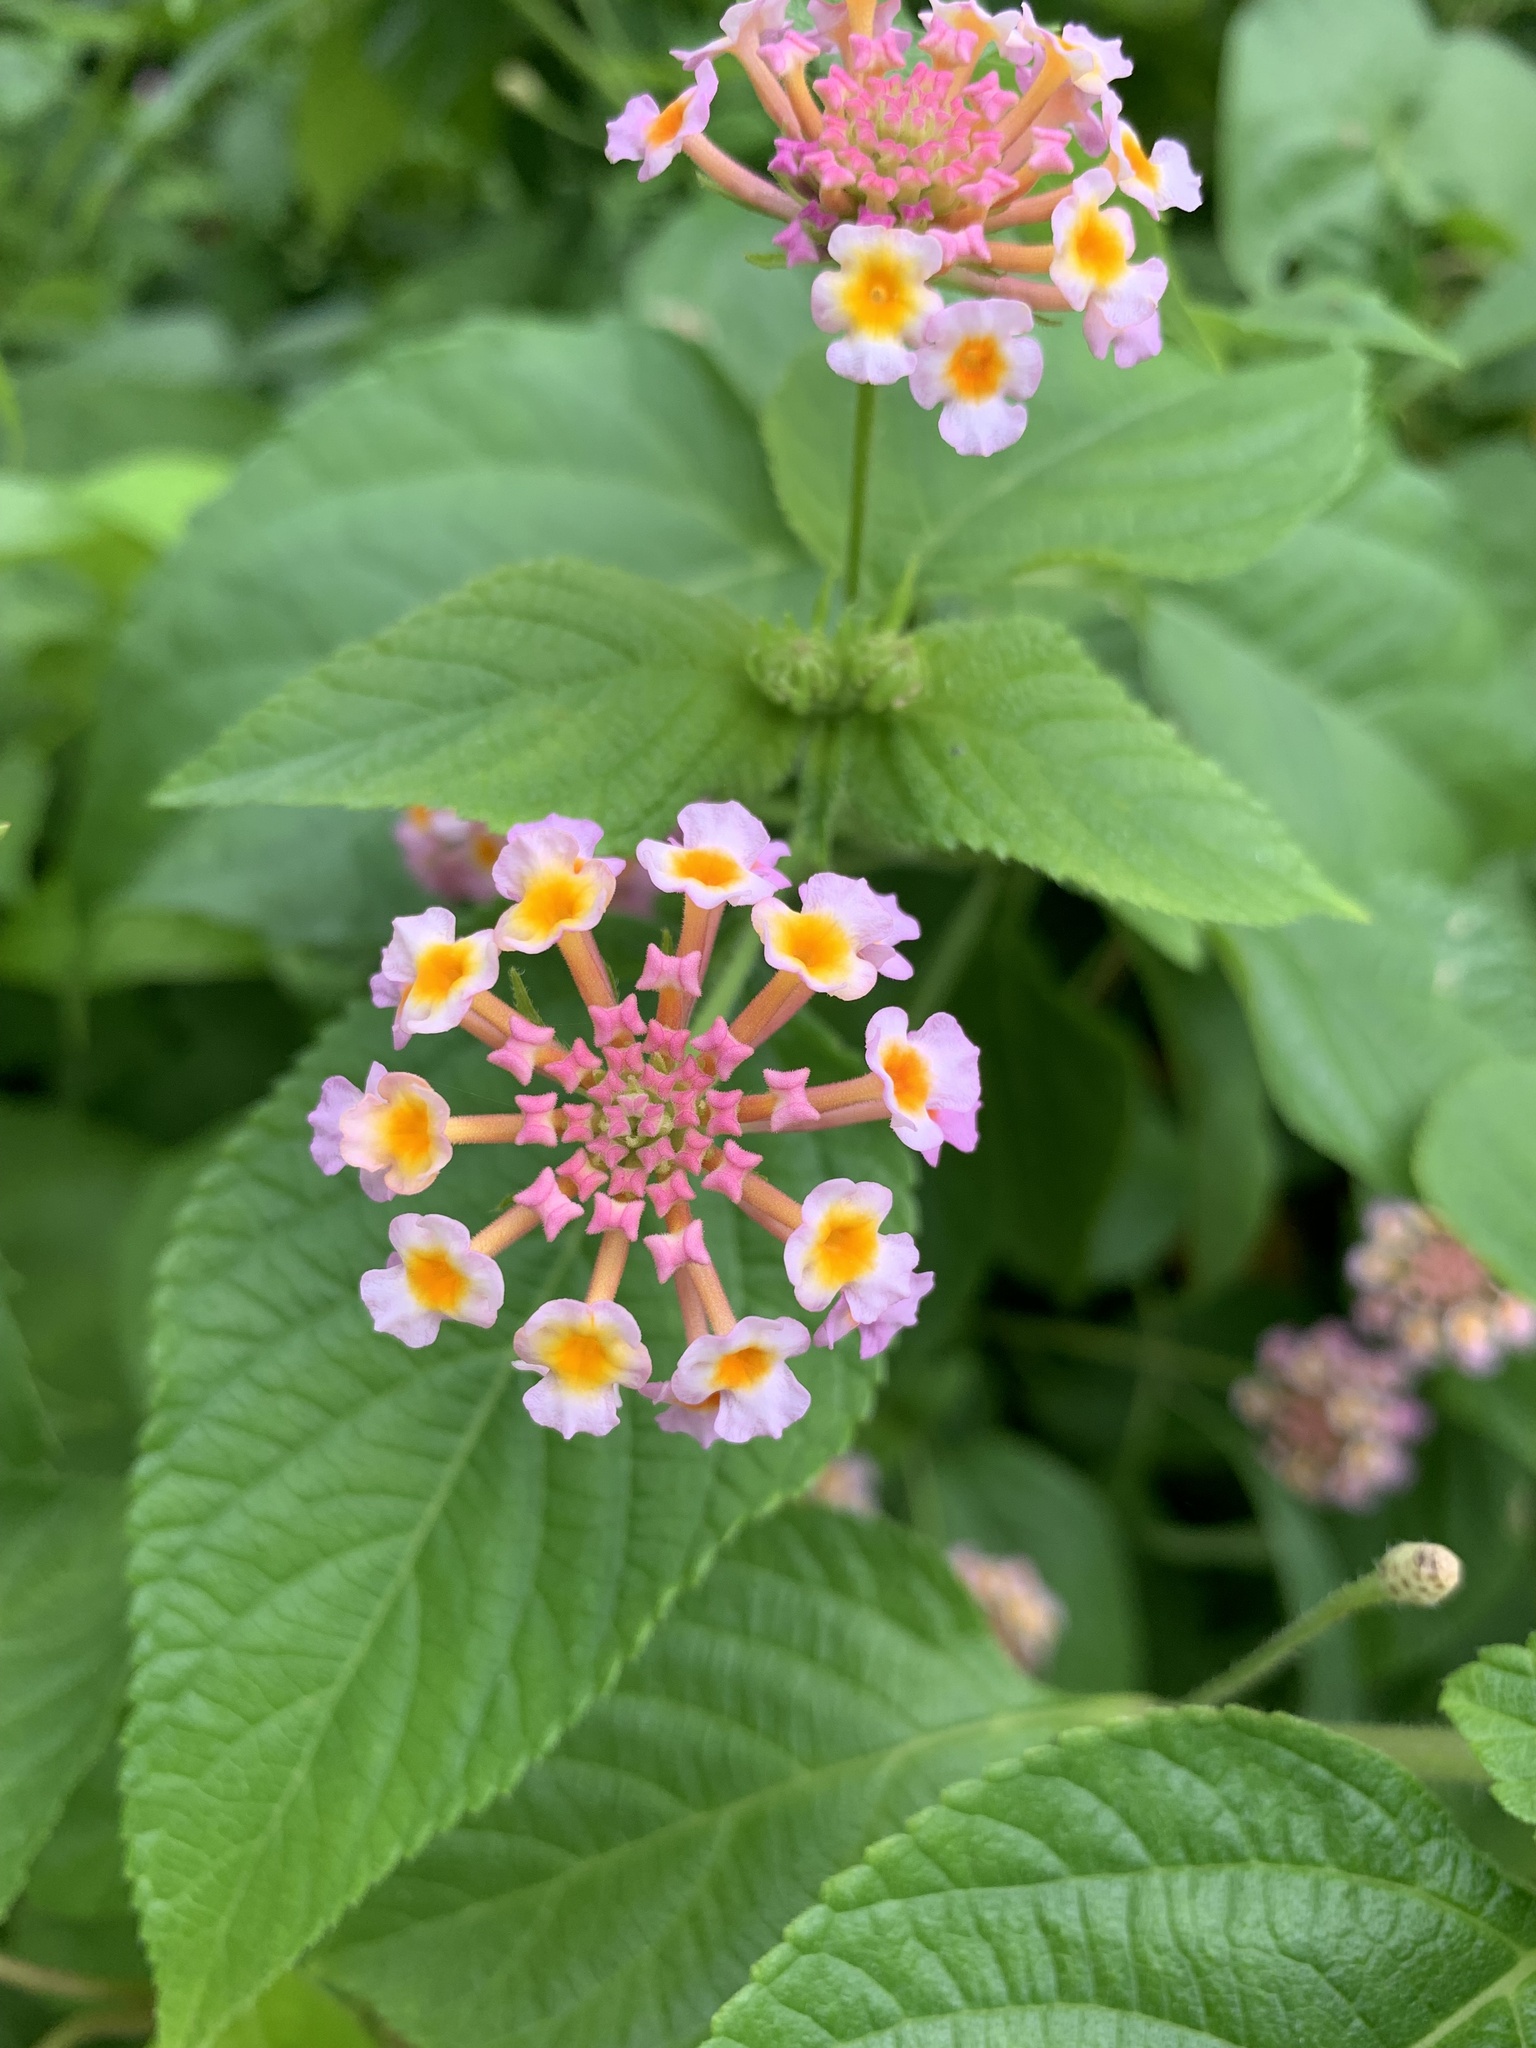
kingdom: Plantae
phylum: Tracheophyta
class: Magnoliopsida
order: Lamiales
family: Verbenaceae
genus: Lantana
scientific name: Lantana camara
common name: Lantana
